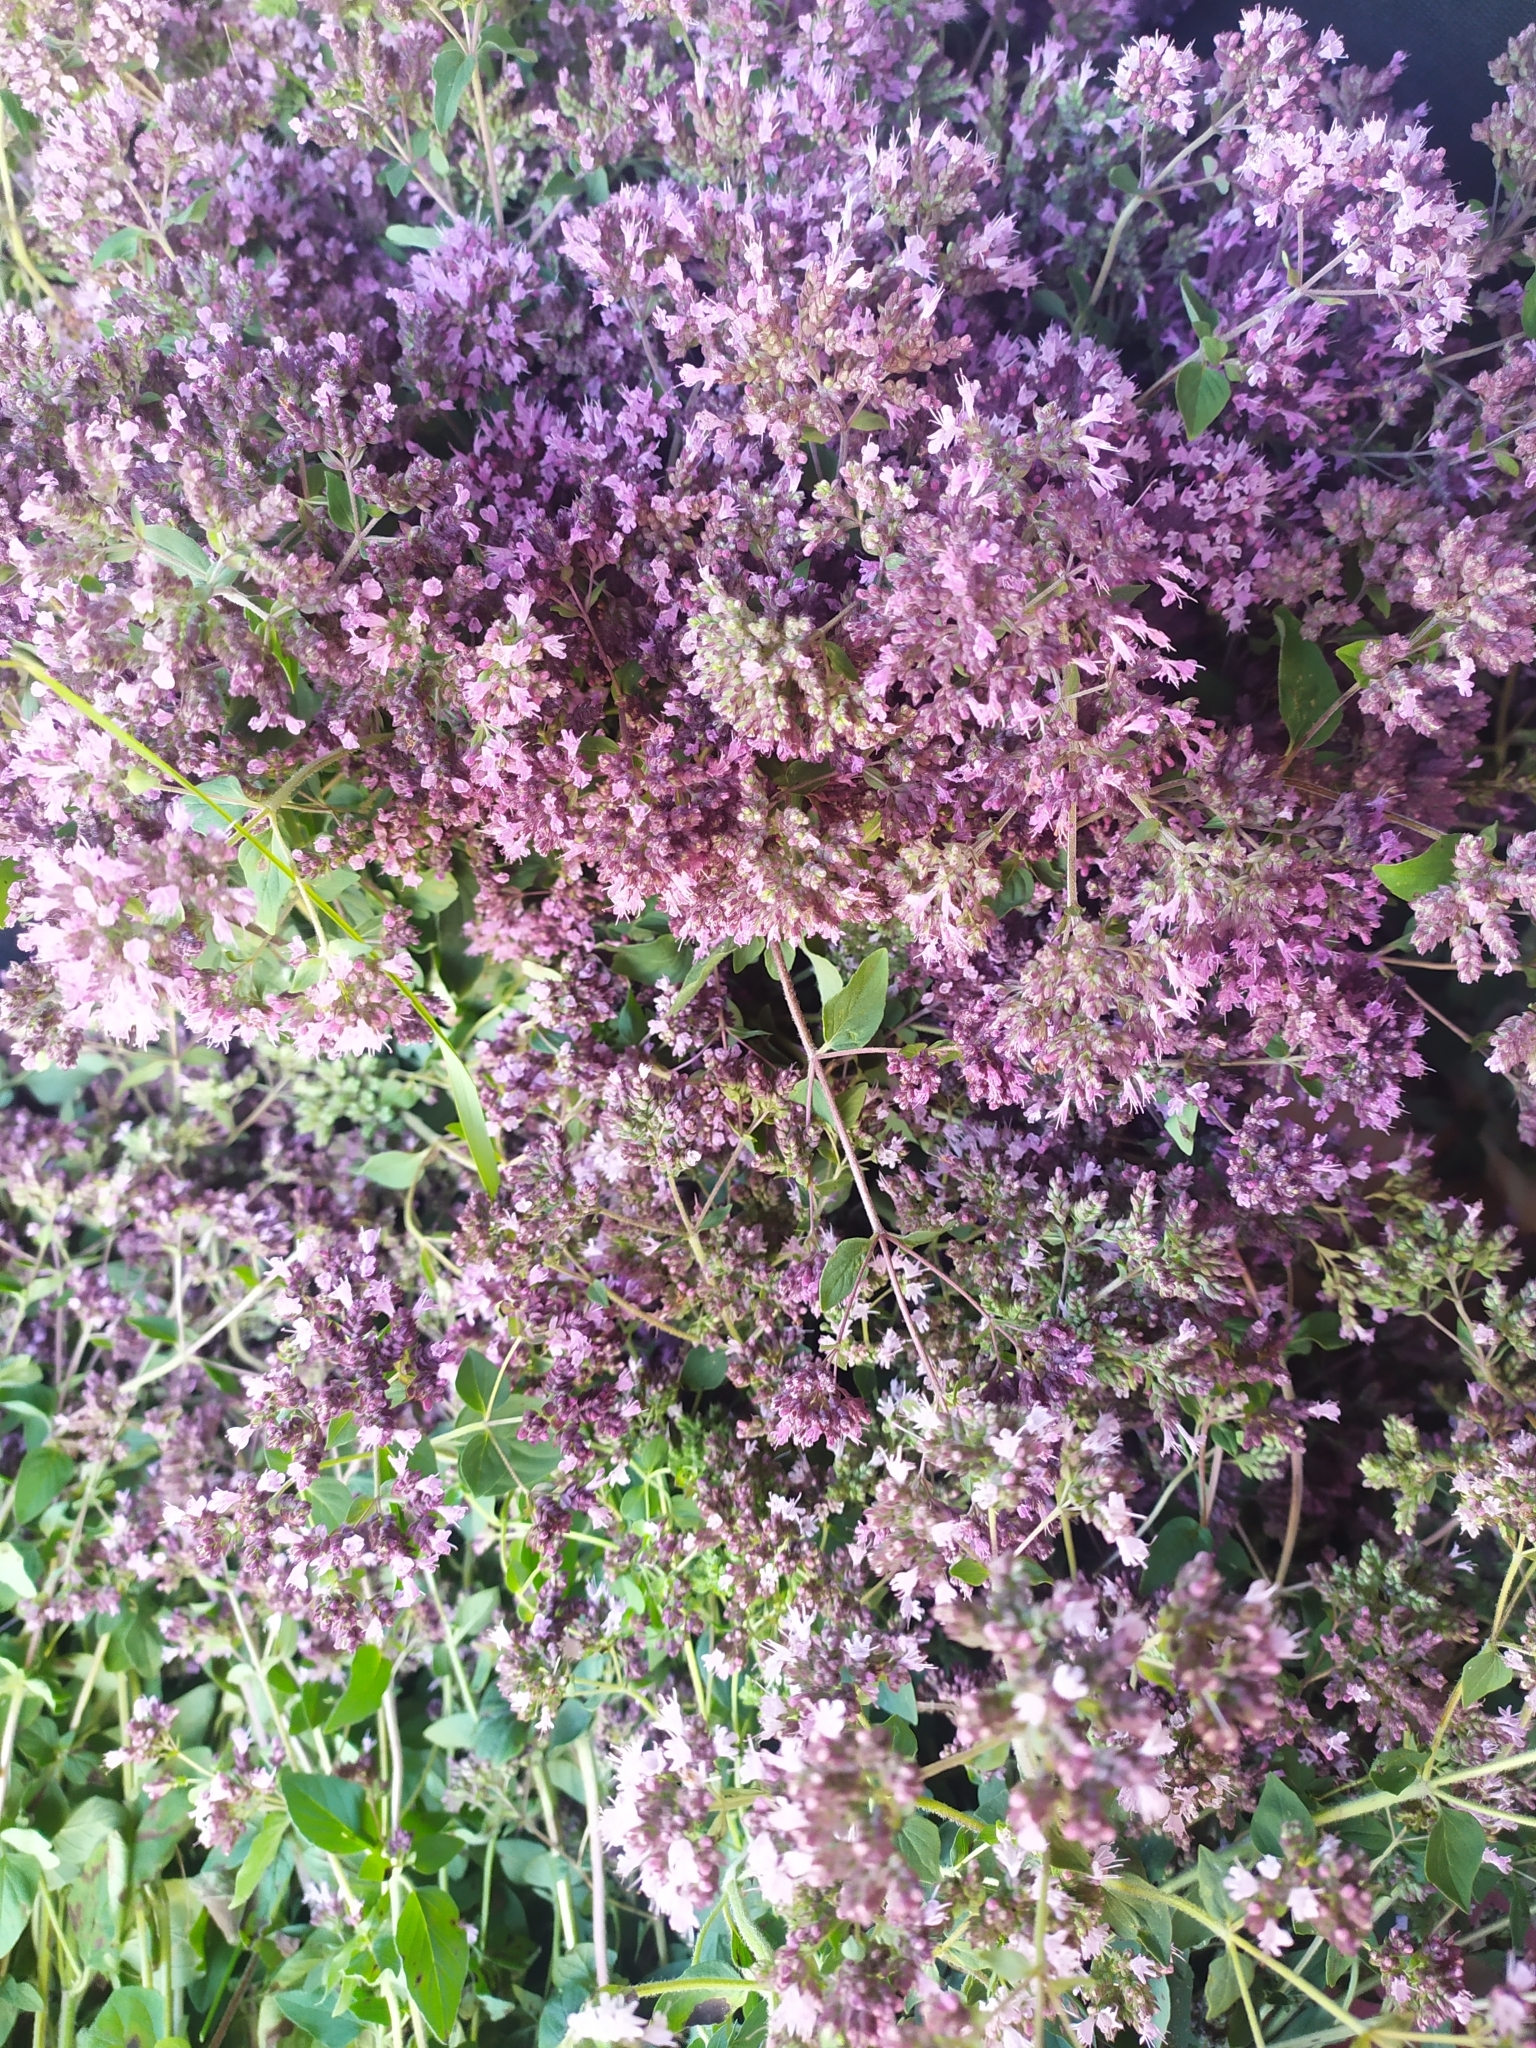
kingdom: Plantae
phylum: Tracheophyta
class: Magnoliopsida
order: Lamiales
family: Lamiaceae
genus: Origanum
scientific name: Origanum vulgare
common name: Wild marjoram
